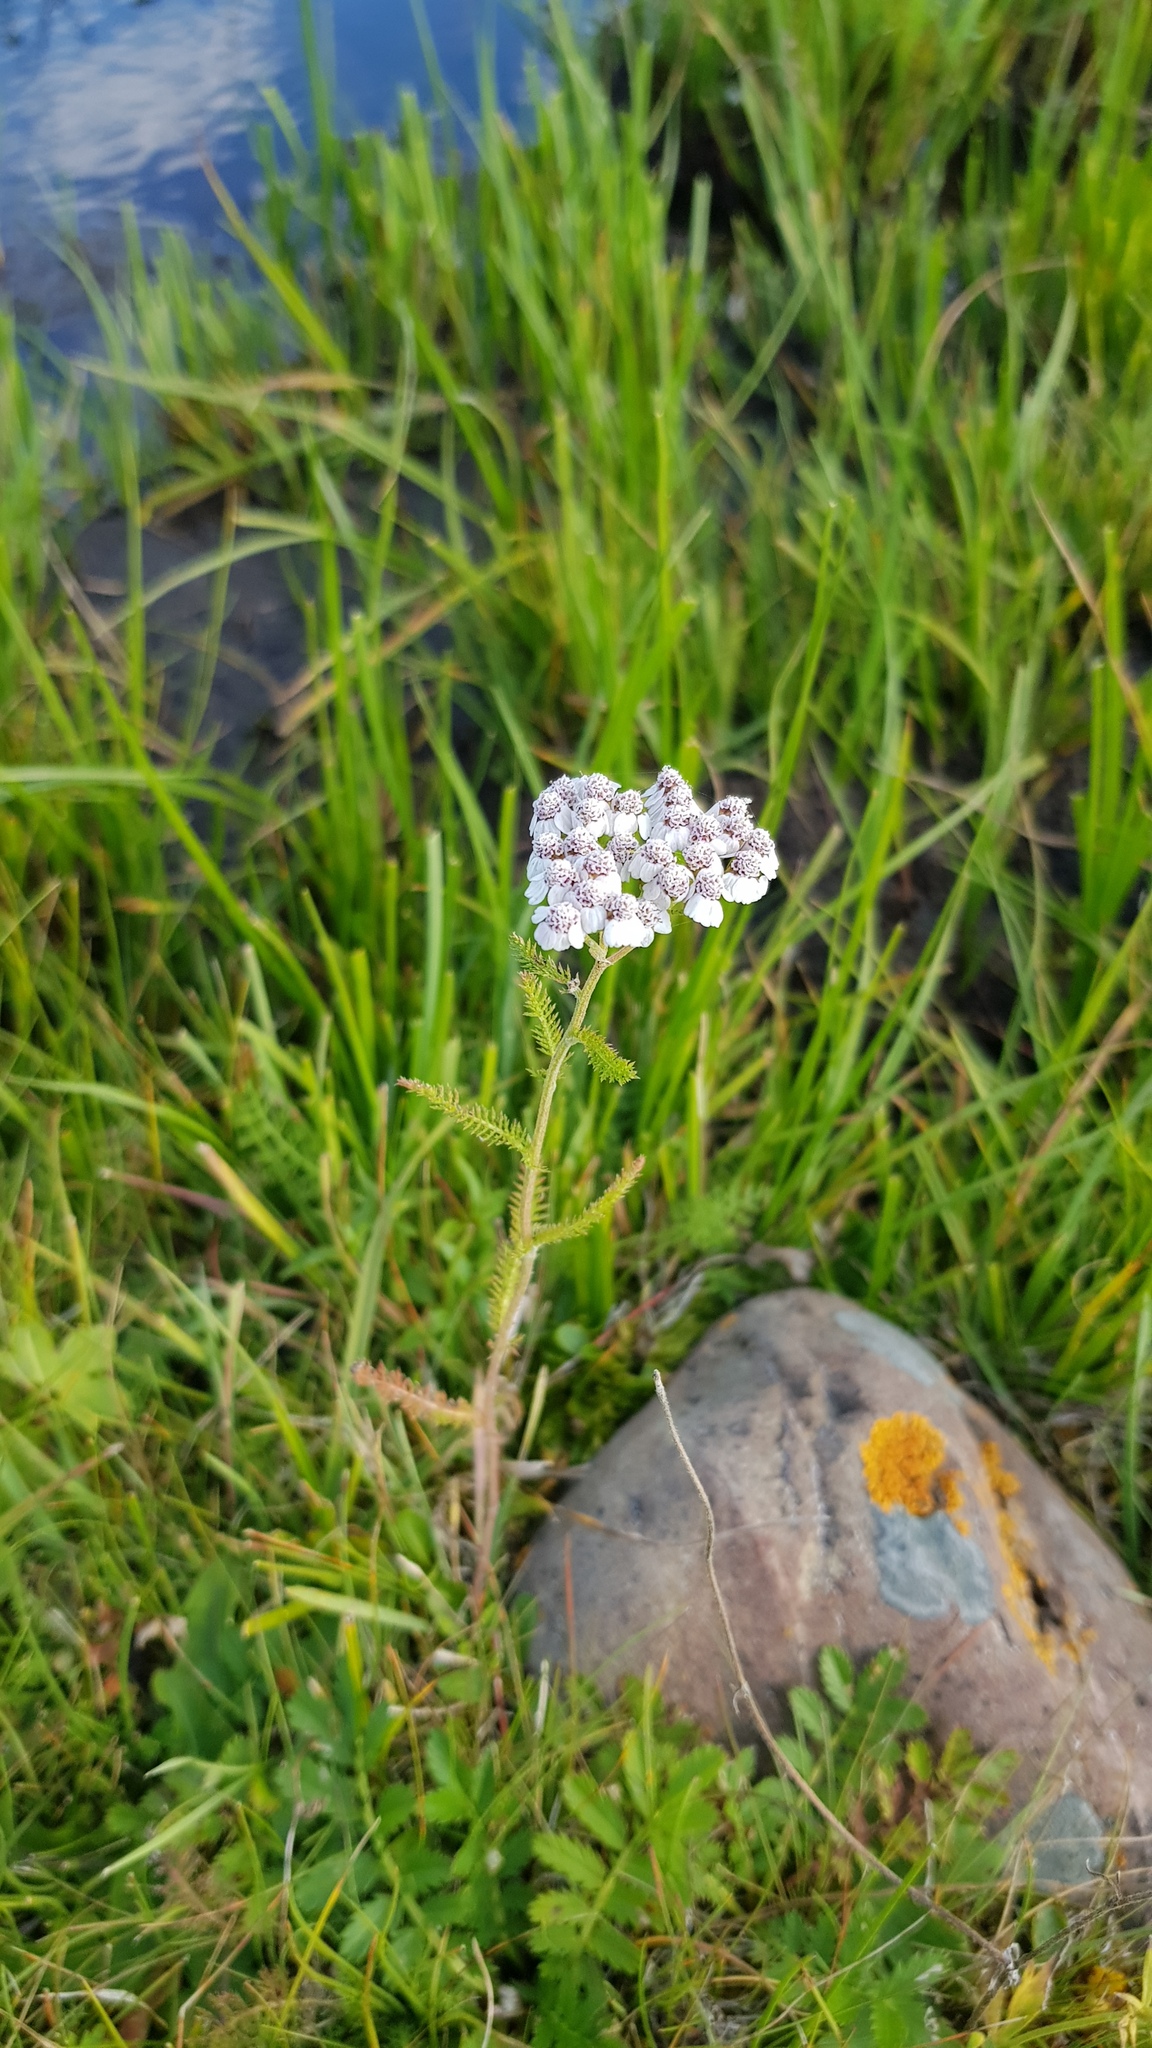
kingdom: Plantae
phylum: Tracheophyta
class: Magnoliopsida
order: Asterales
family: Asteraceae
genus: Achillea
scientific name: Achillea asiatica
